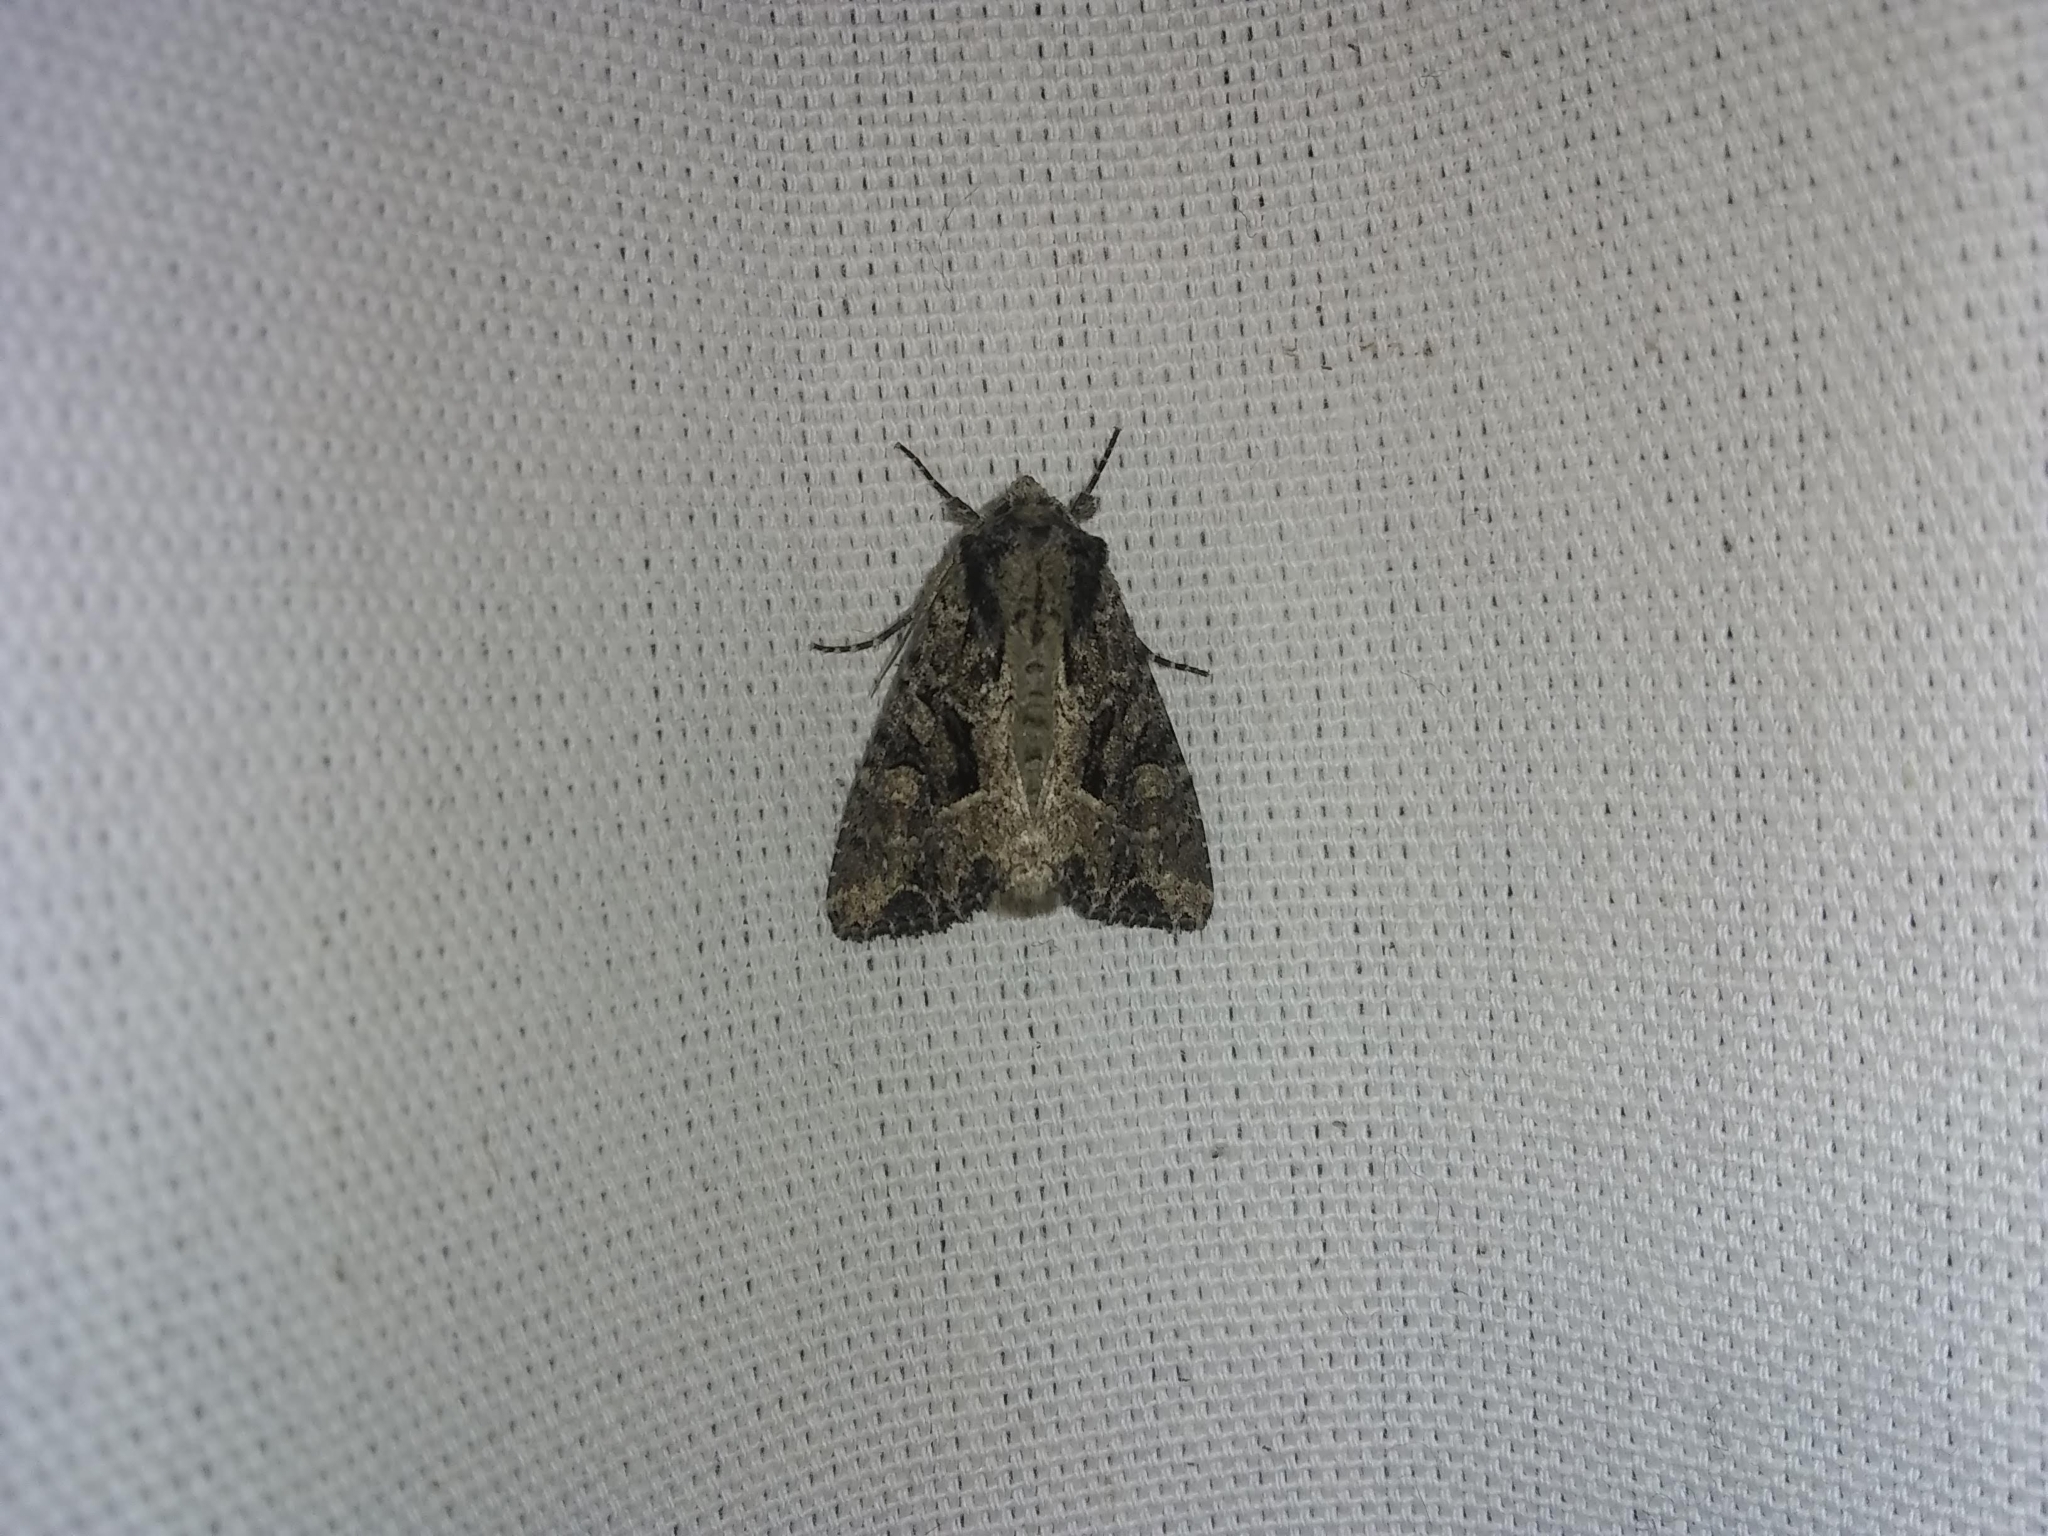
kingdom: Animalia
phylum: Arthropoda
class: Insecta
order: Lepidoptera
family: Noctuidae
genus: Apamea
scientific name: Apamea remissa
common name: Dusky brocade
